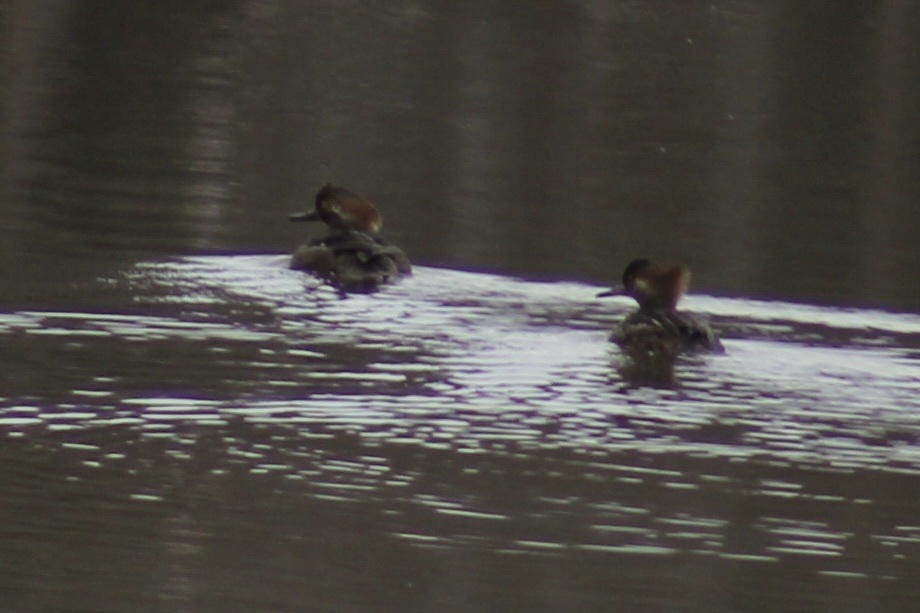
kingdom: Animalia
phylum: Chordata
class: Aves
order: Anseriformes
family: Anatidae
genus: Lophodytes
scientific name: Lophodytes cucullatus
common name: Hooded merganser
